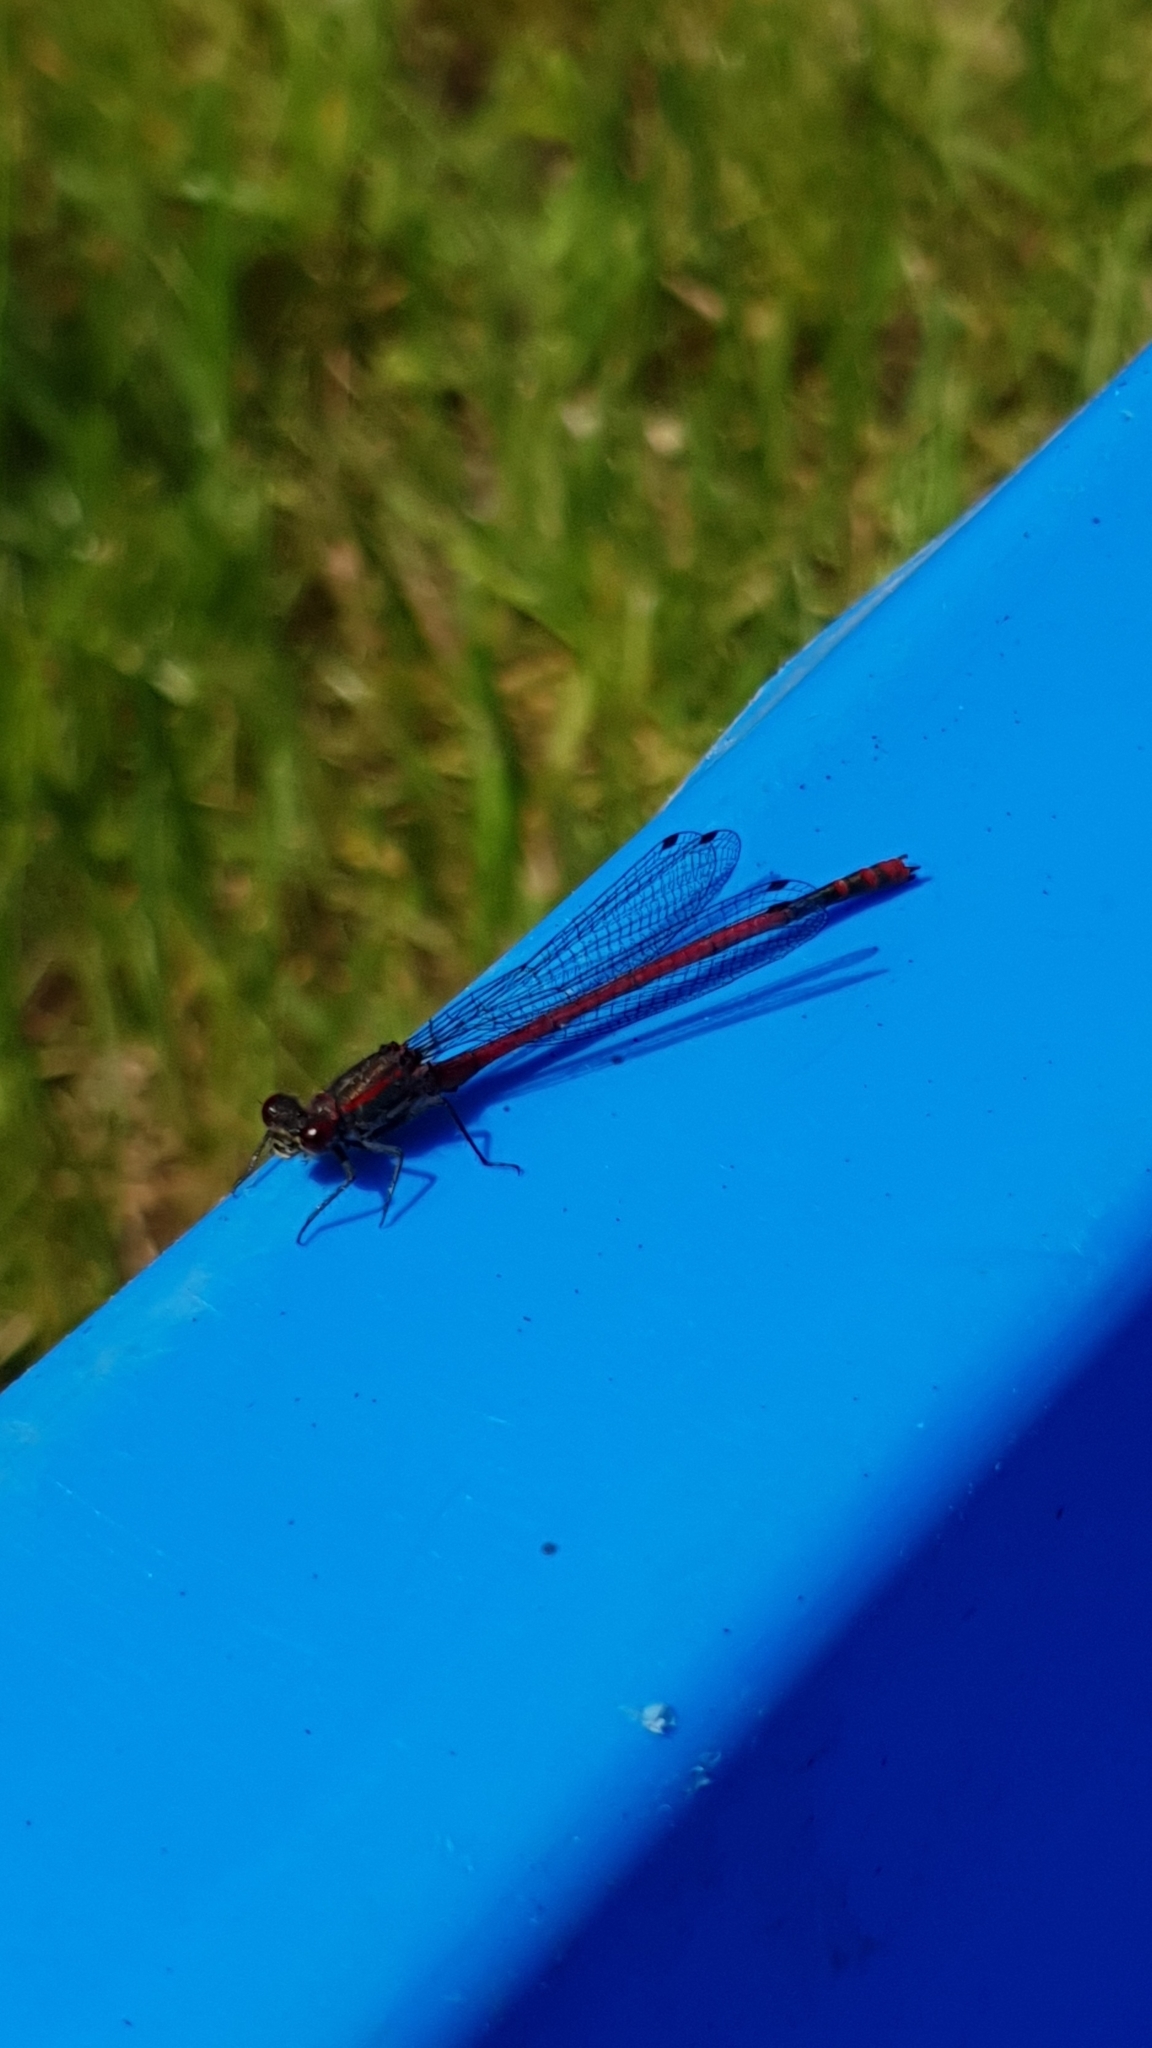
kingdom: Animalia
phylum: Arthropoda
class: Insecta
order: Odonata
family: Coenagrionidae
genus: Pyrrhosoma
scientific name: Pyrrhosoma nymphula
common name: Large red damsel
